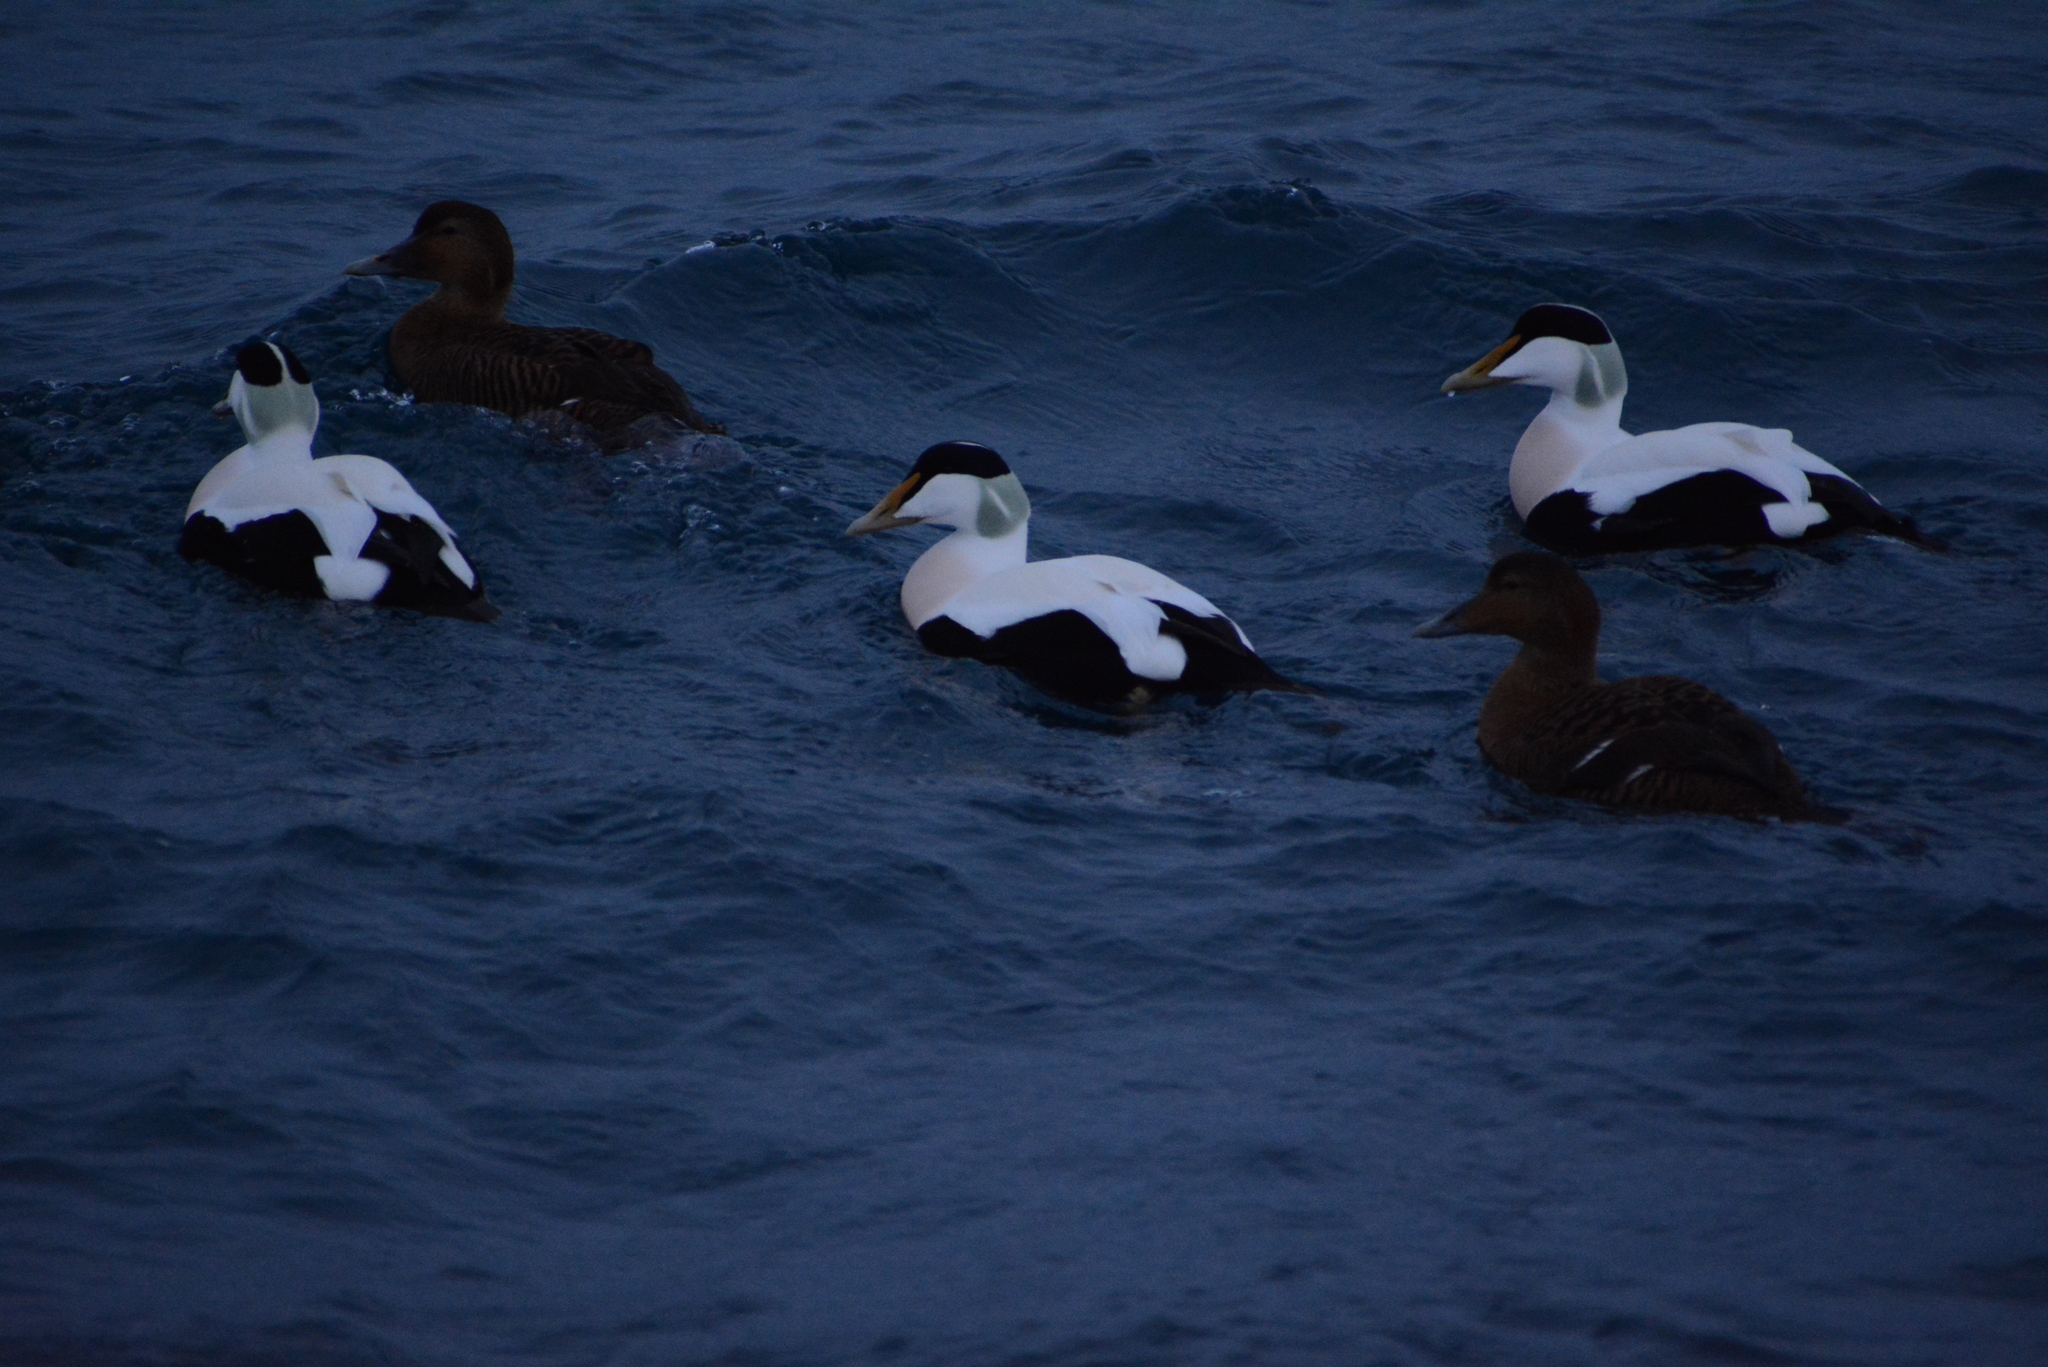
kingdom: Animalia
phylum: Chordata
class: Aves
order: Anseriformes
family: Anatidae
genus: Somateria
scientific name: Somateria mollissima
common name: Common eider
